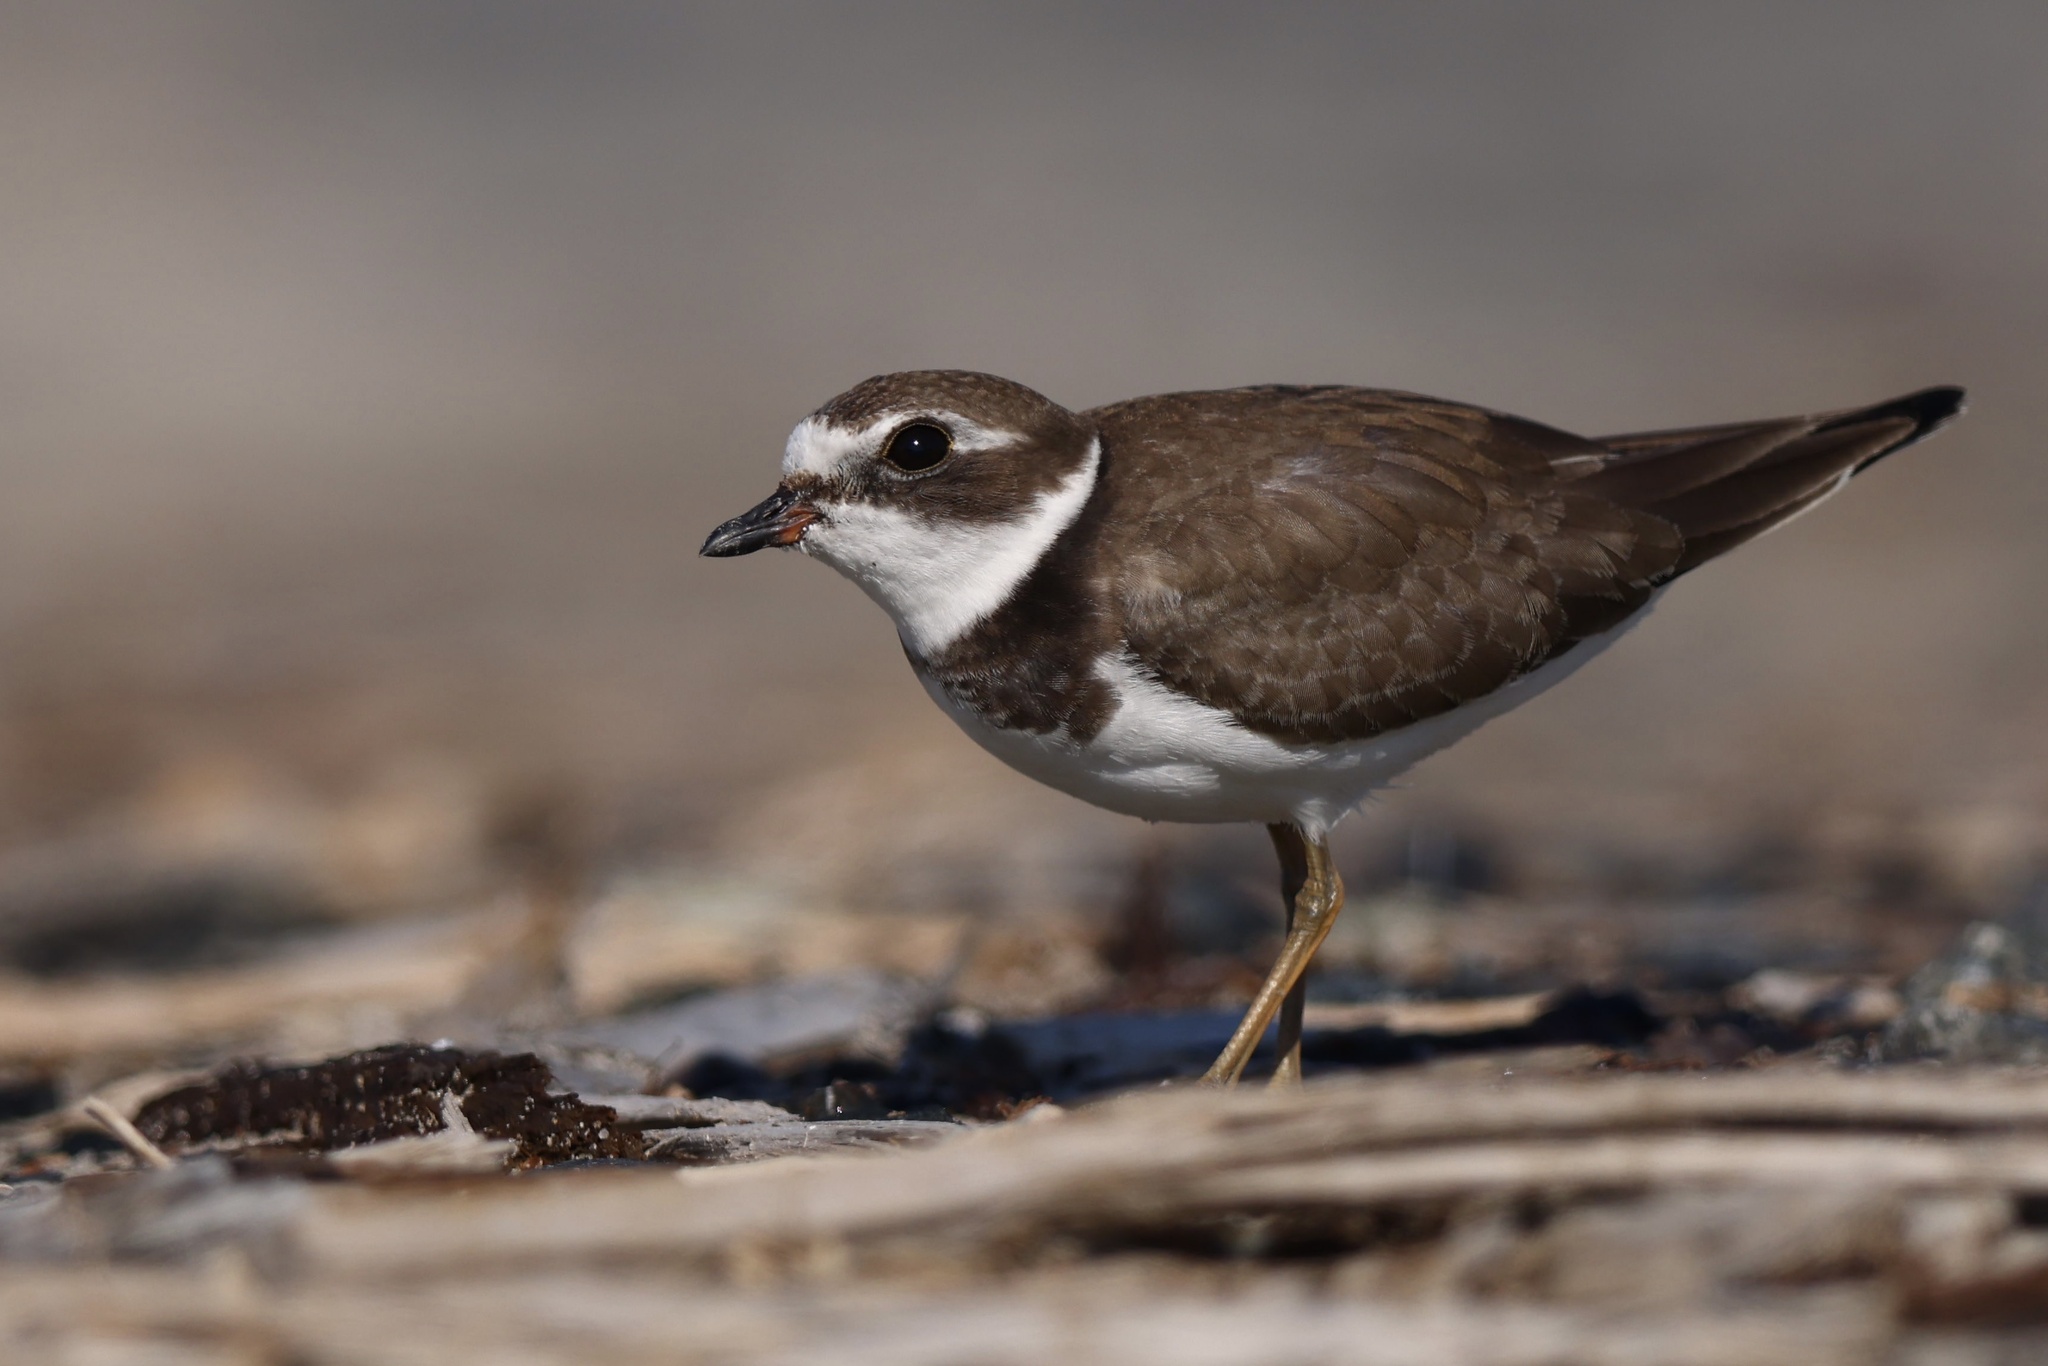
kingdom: Animalia
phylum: Chordata
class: Aves
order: Charadriiformes
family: Charadriidae
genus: Charadrius
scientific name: Charadrius semipalmatus
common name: Semipalmated plover
